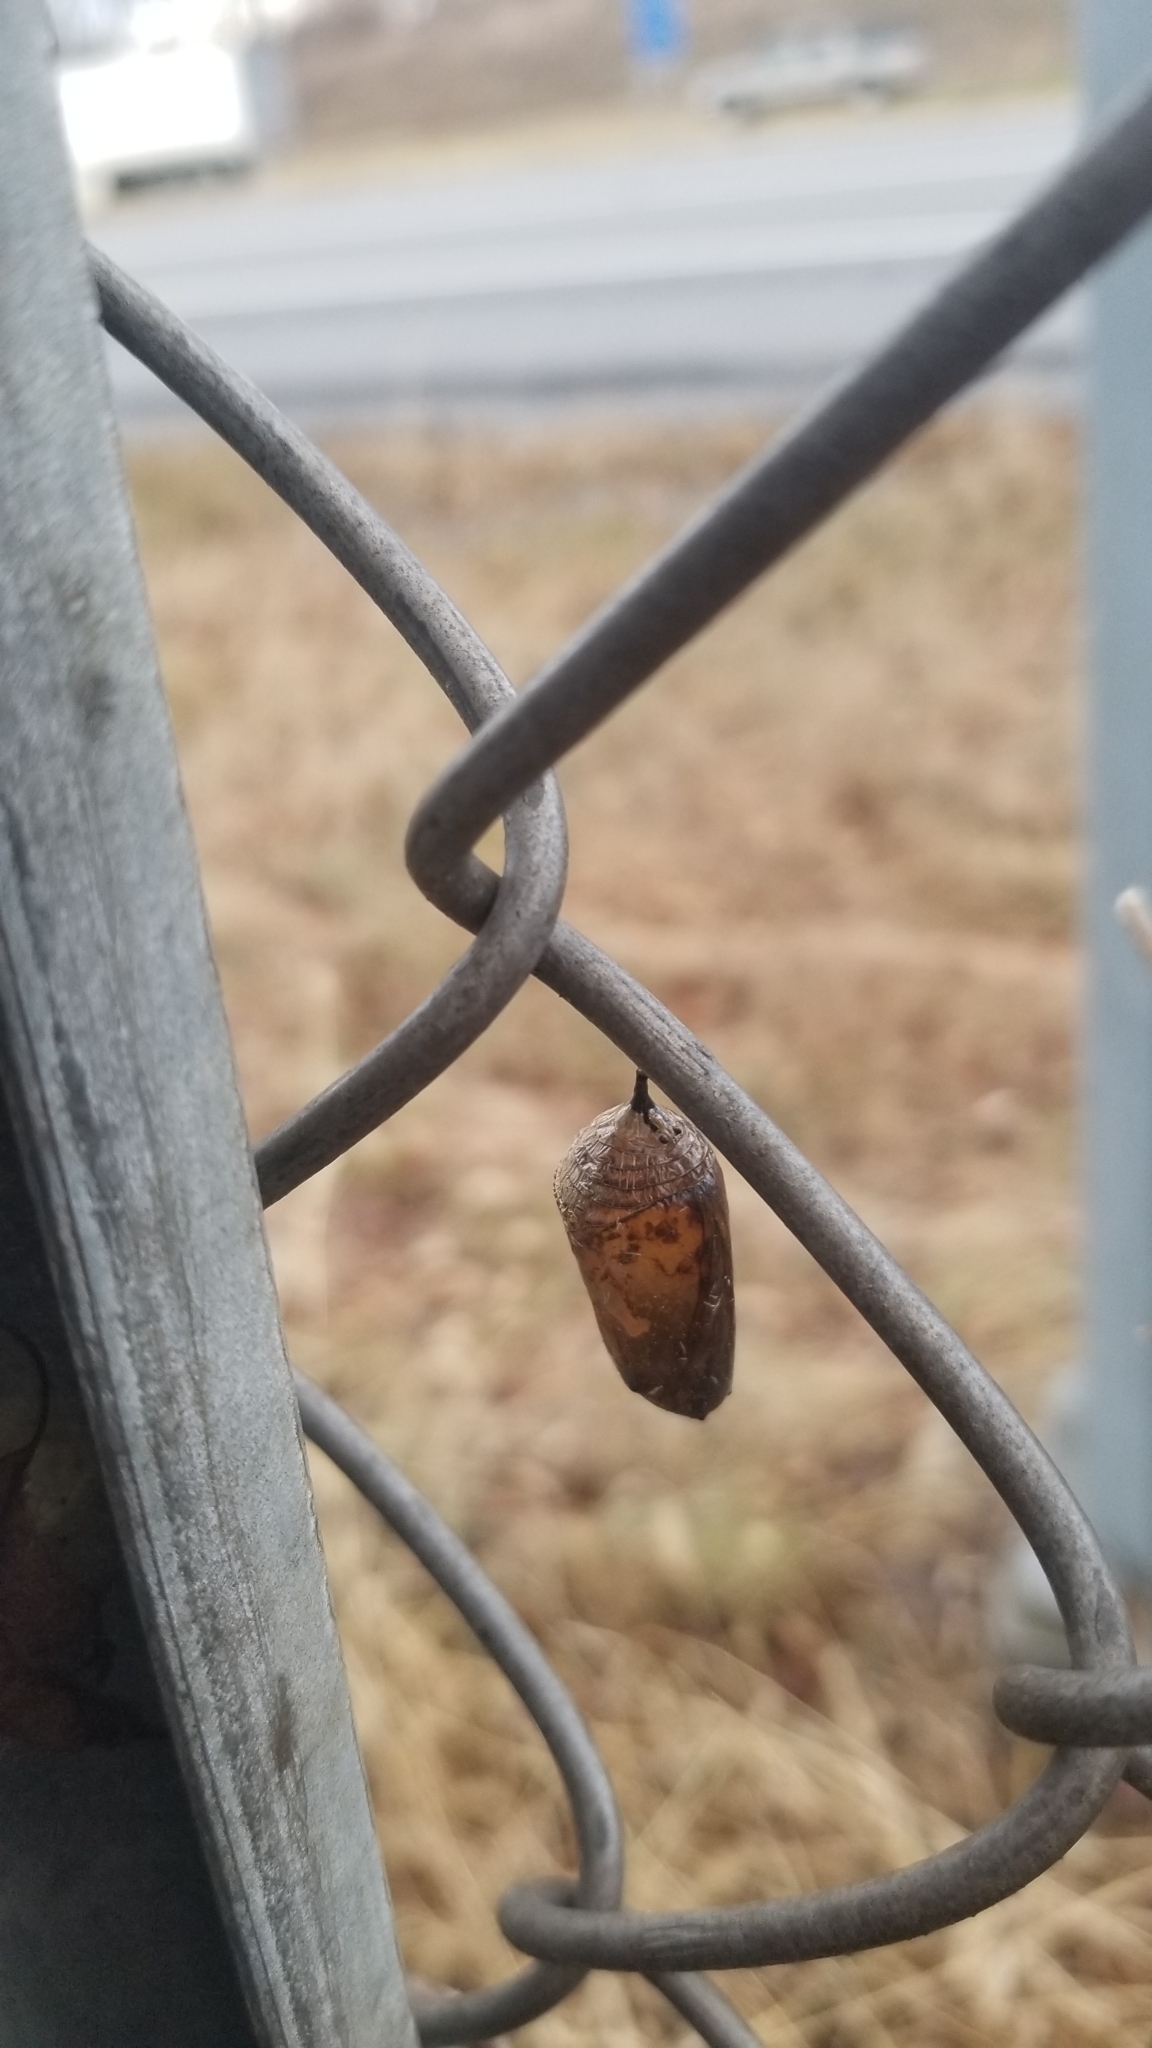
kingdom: Animalia
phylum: Arthropoda
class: Insecta
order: Lepidoptera
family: Nymphalidae
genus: Danaus
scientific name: Danaus plexippus
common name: Monarch
